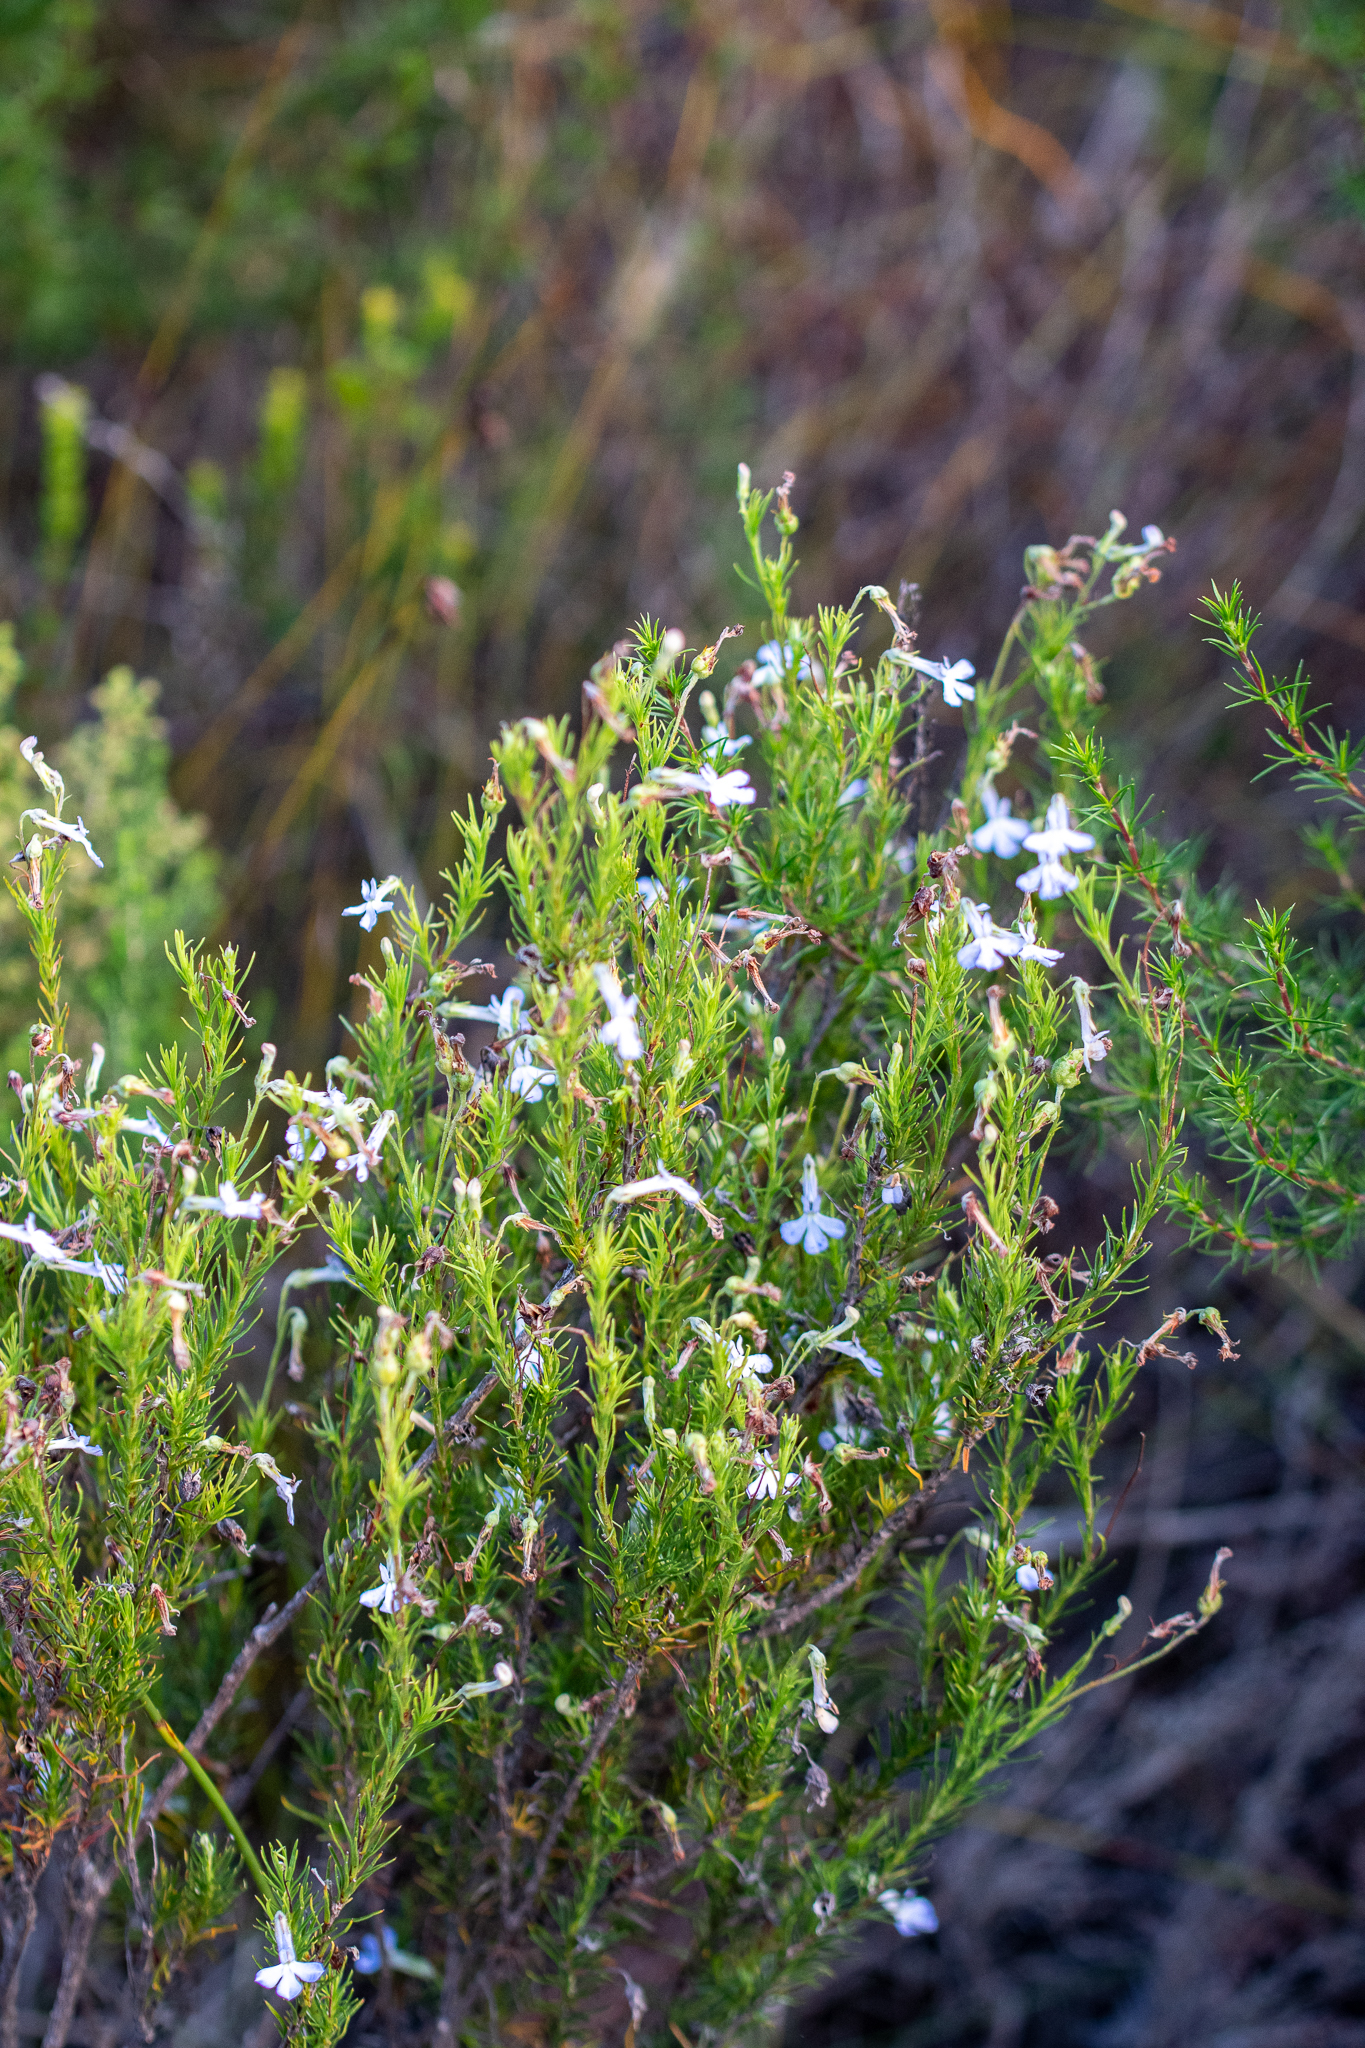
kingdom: Plantae
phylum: Tracheophyta
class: Magnoliopsida
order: Asterales
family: Campanulaceae
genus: Lobelia
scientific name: Lobelia pinifolia
